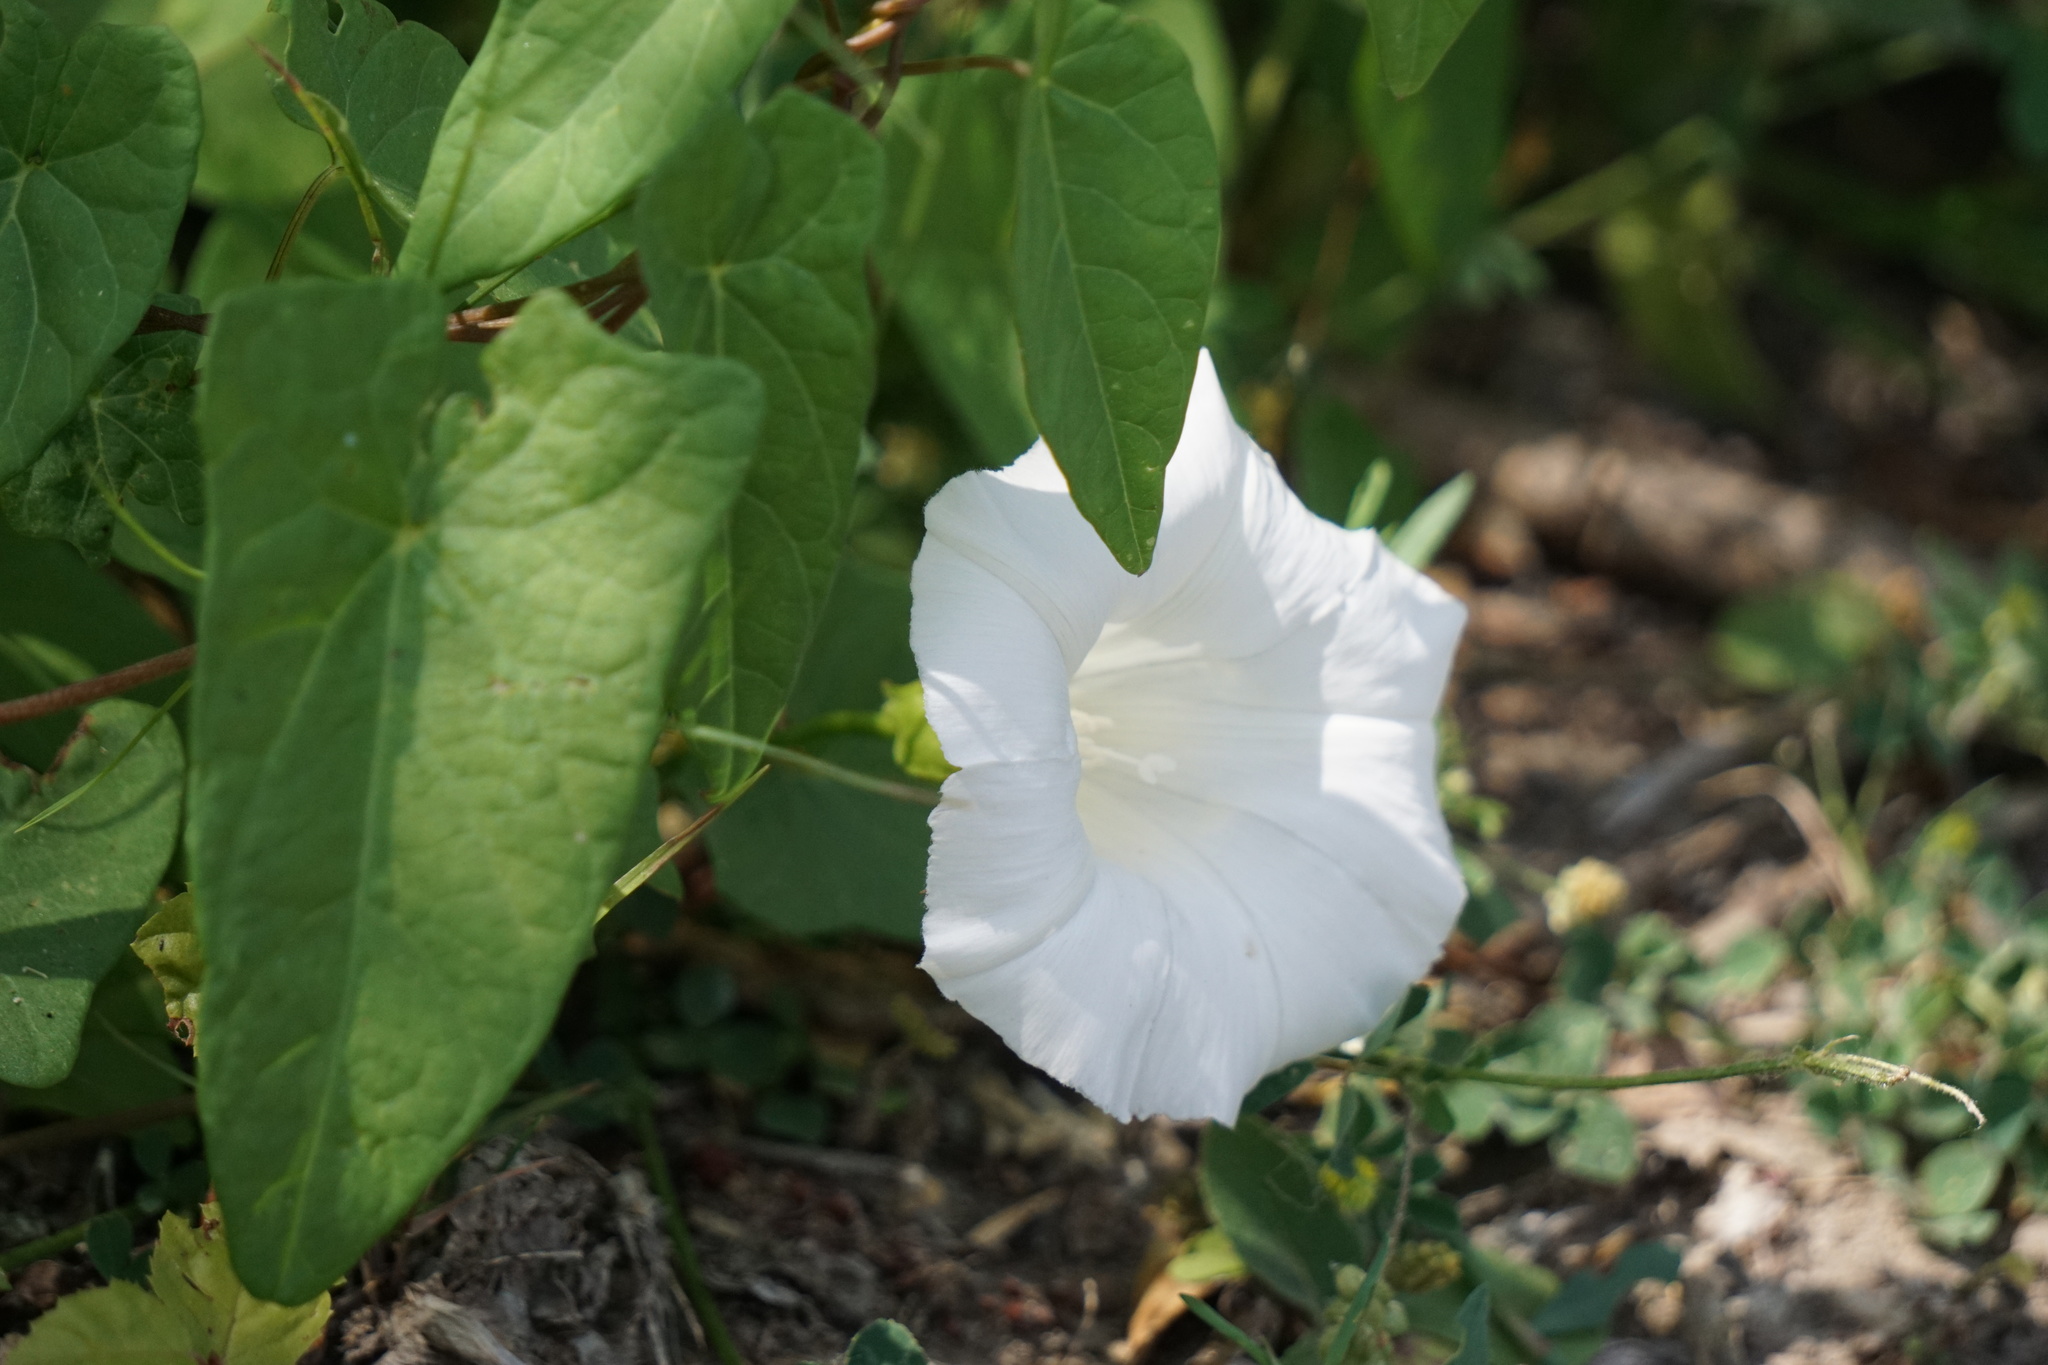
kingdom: Plantae
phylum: Tracheophyta
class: Magnoliopsida
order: Solanales
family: Convolvulaceae
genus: Calystegia
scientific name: Calystegia sepium
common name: Hedge bindweed
